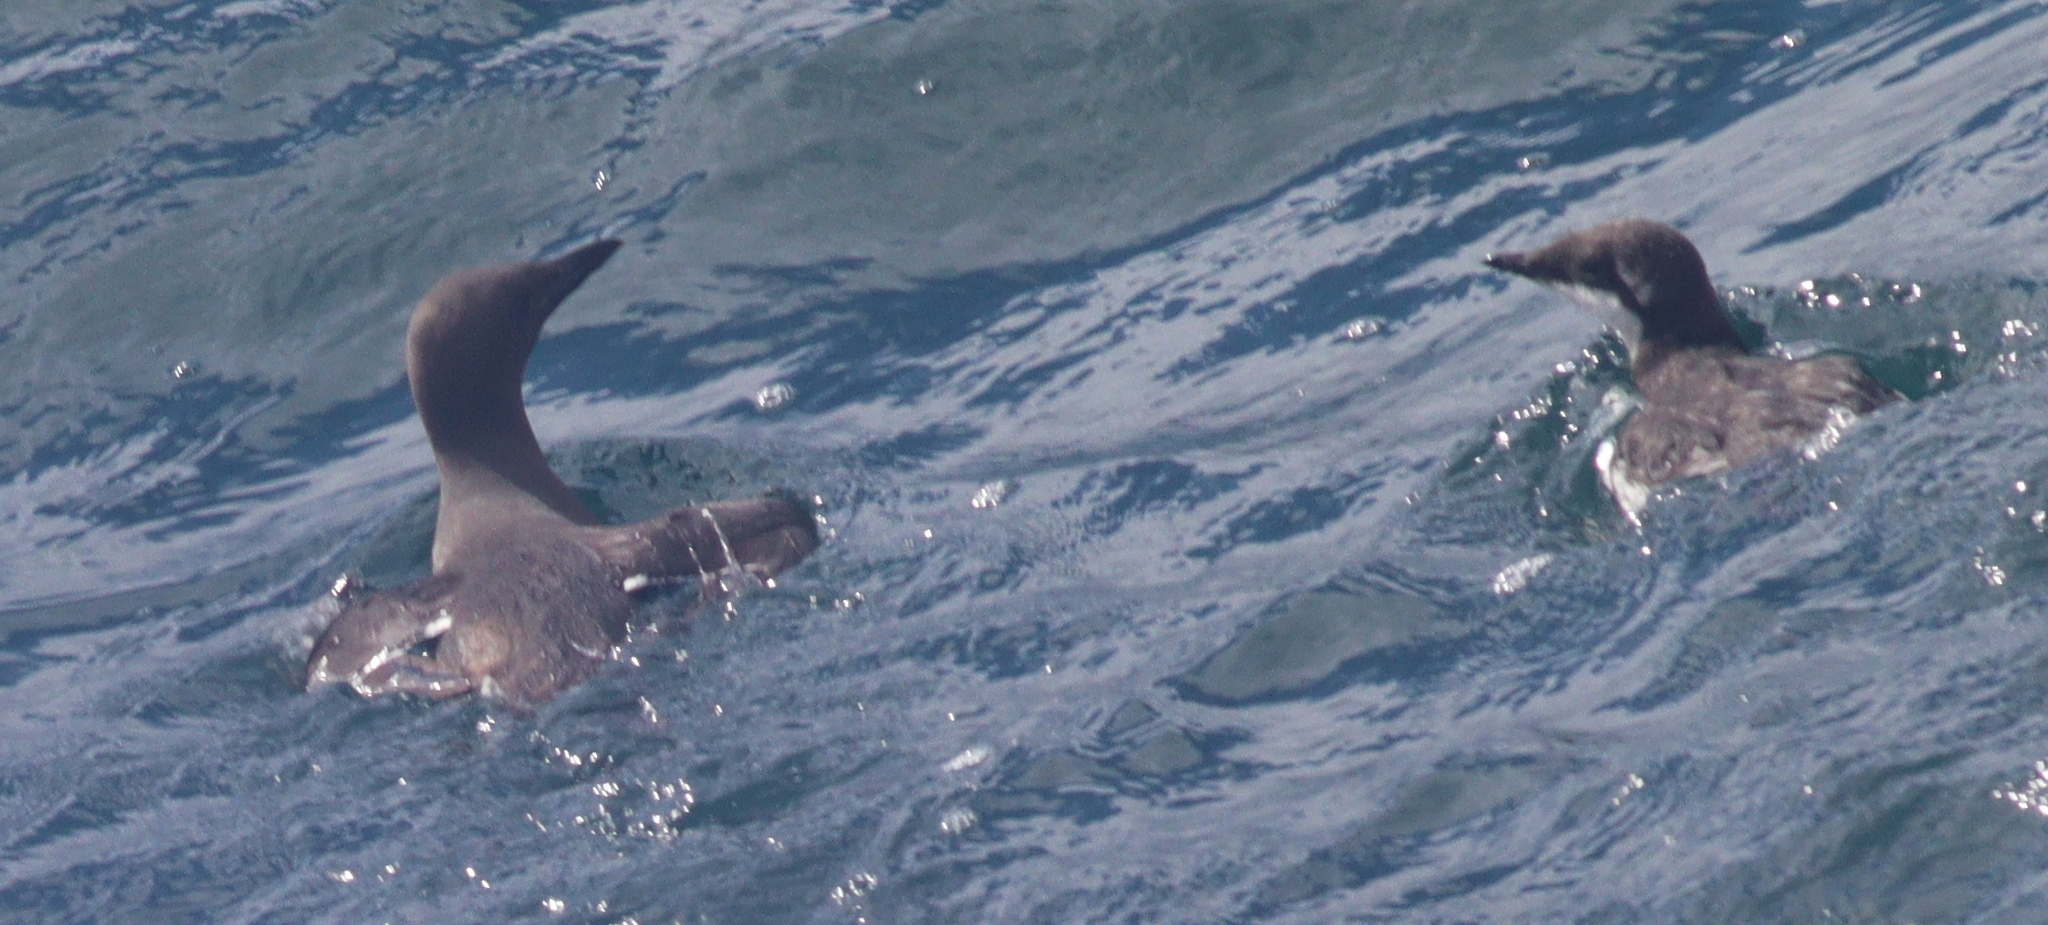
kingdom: Animalia
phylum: Chordata
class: Aves
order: Charadriiformes
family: Alcidae
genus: Uria
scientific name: Uria aalge
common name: Common murre
